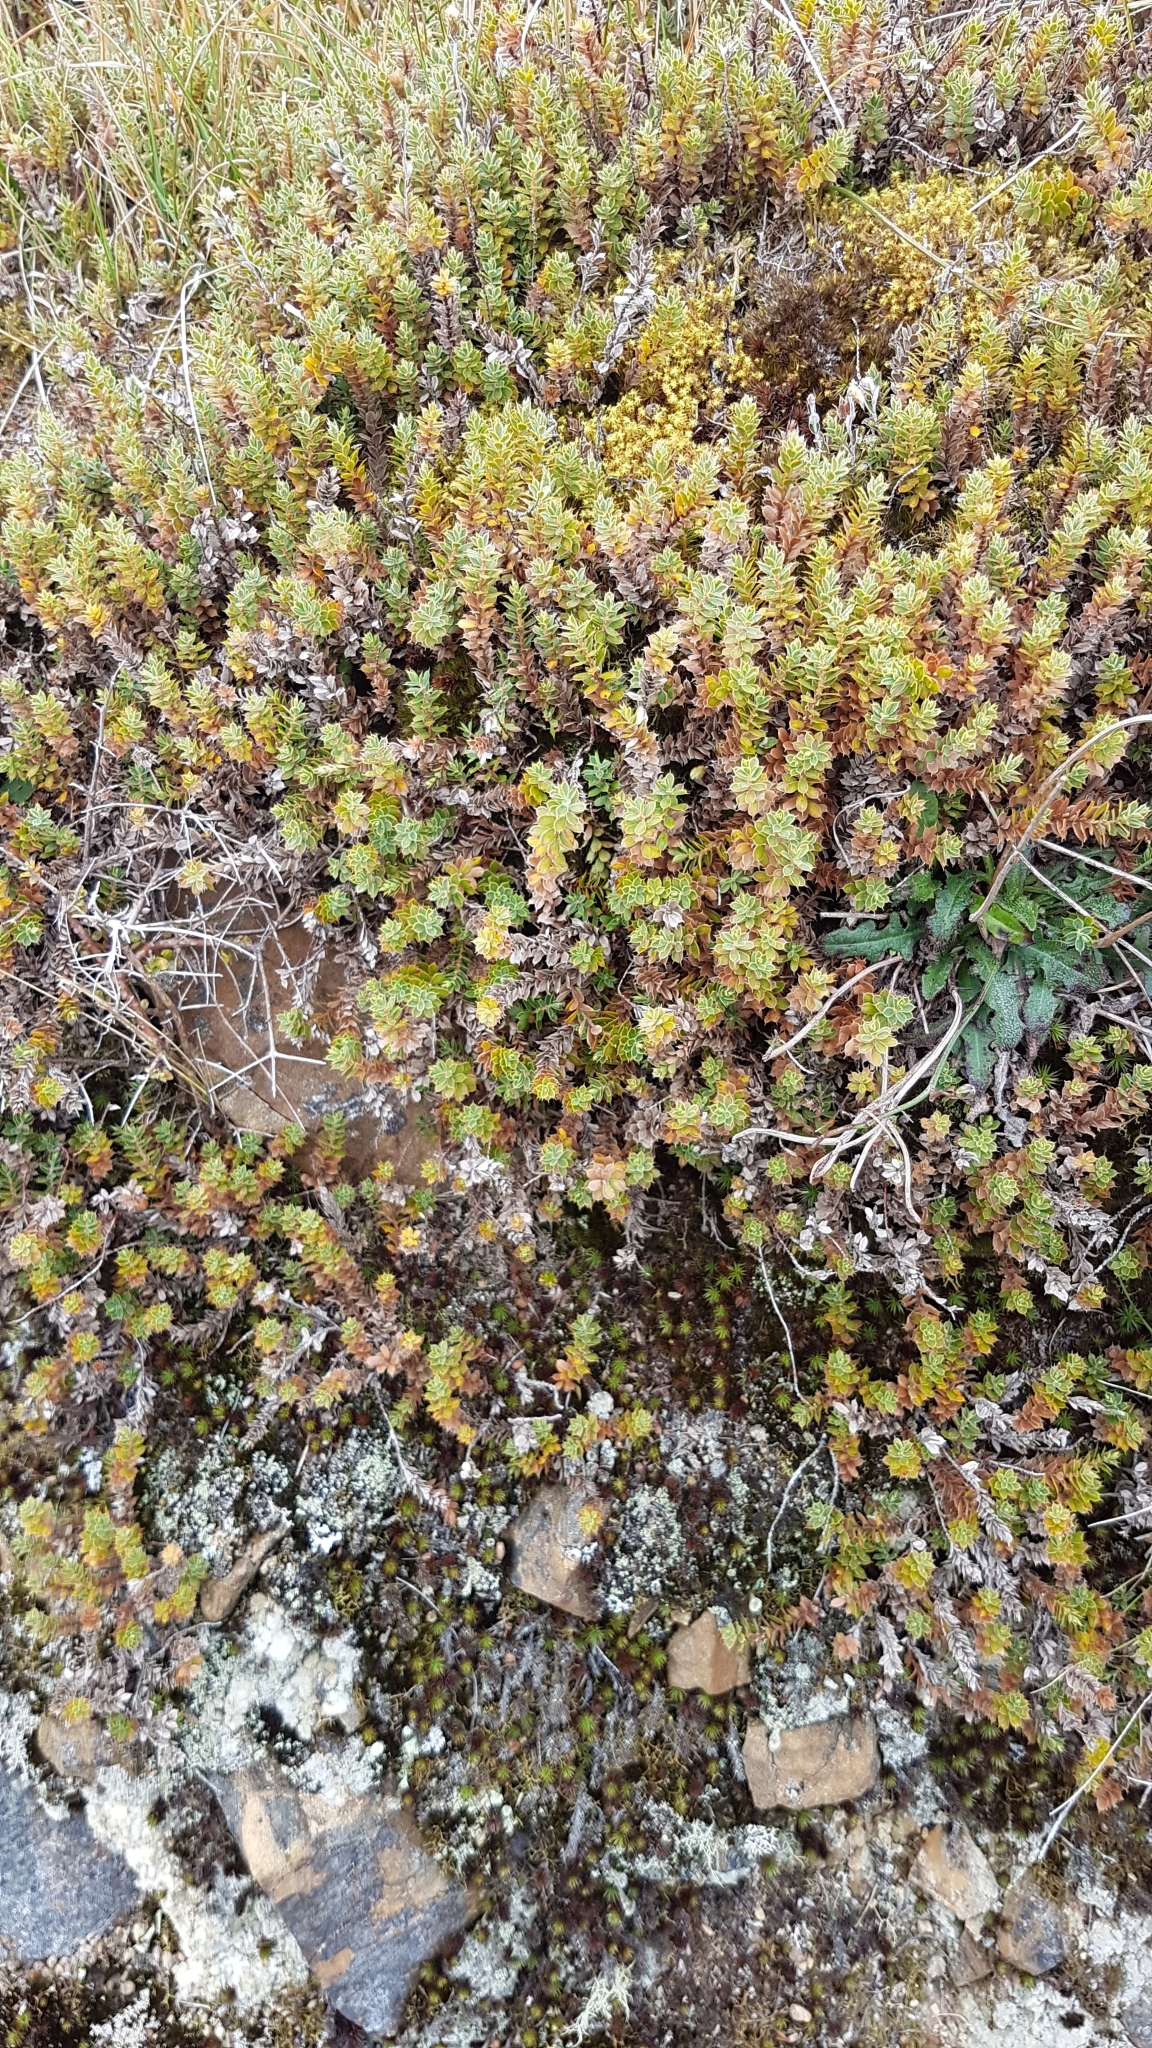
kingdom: Plantae
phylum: Tracheophyta
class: Magnoliopsida
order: Ericales
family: Ericaceae
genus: Styphelia
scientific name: Styphelia nesophila
